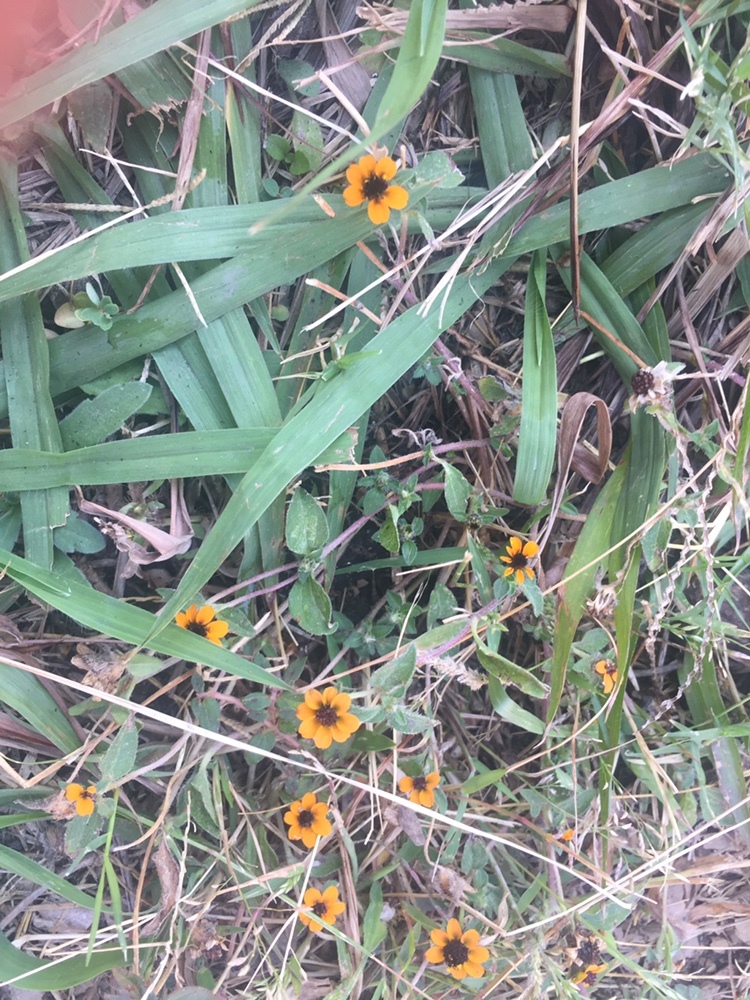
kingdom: Plantae
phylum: Tracheophyta
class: Magnoliopsida
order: Asterales
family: Asteraceae
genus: Sanvitalia
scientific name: Sanvitalia procumbens
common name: Mexican creeping zinnia
